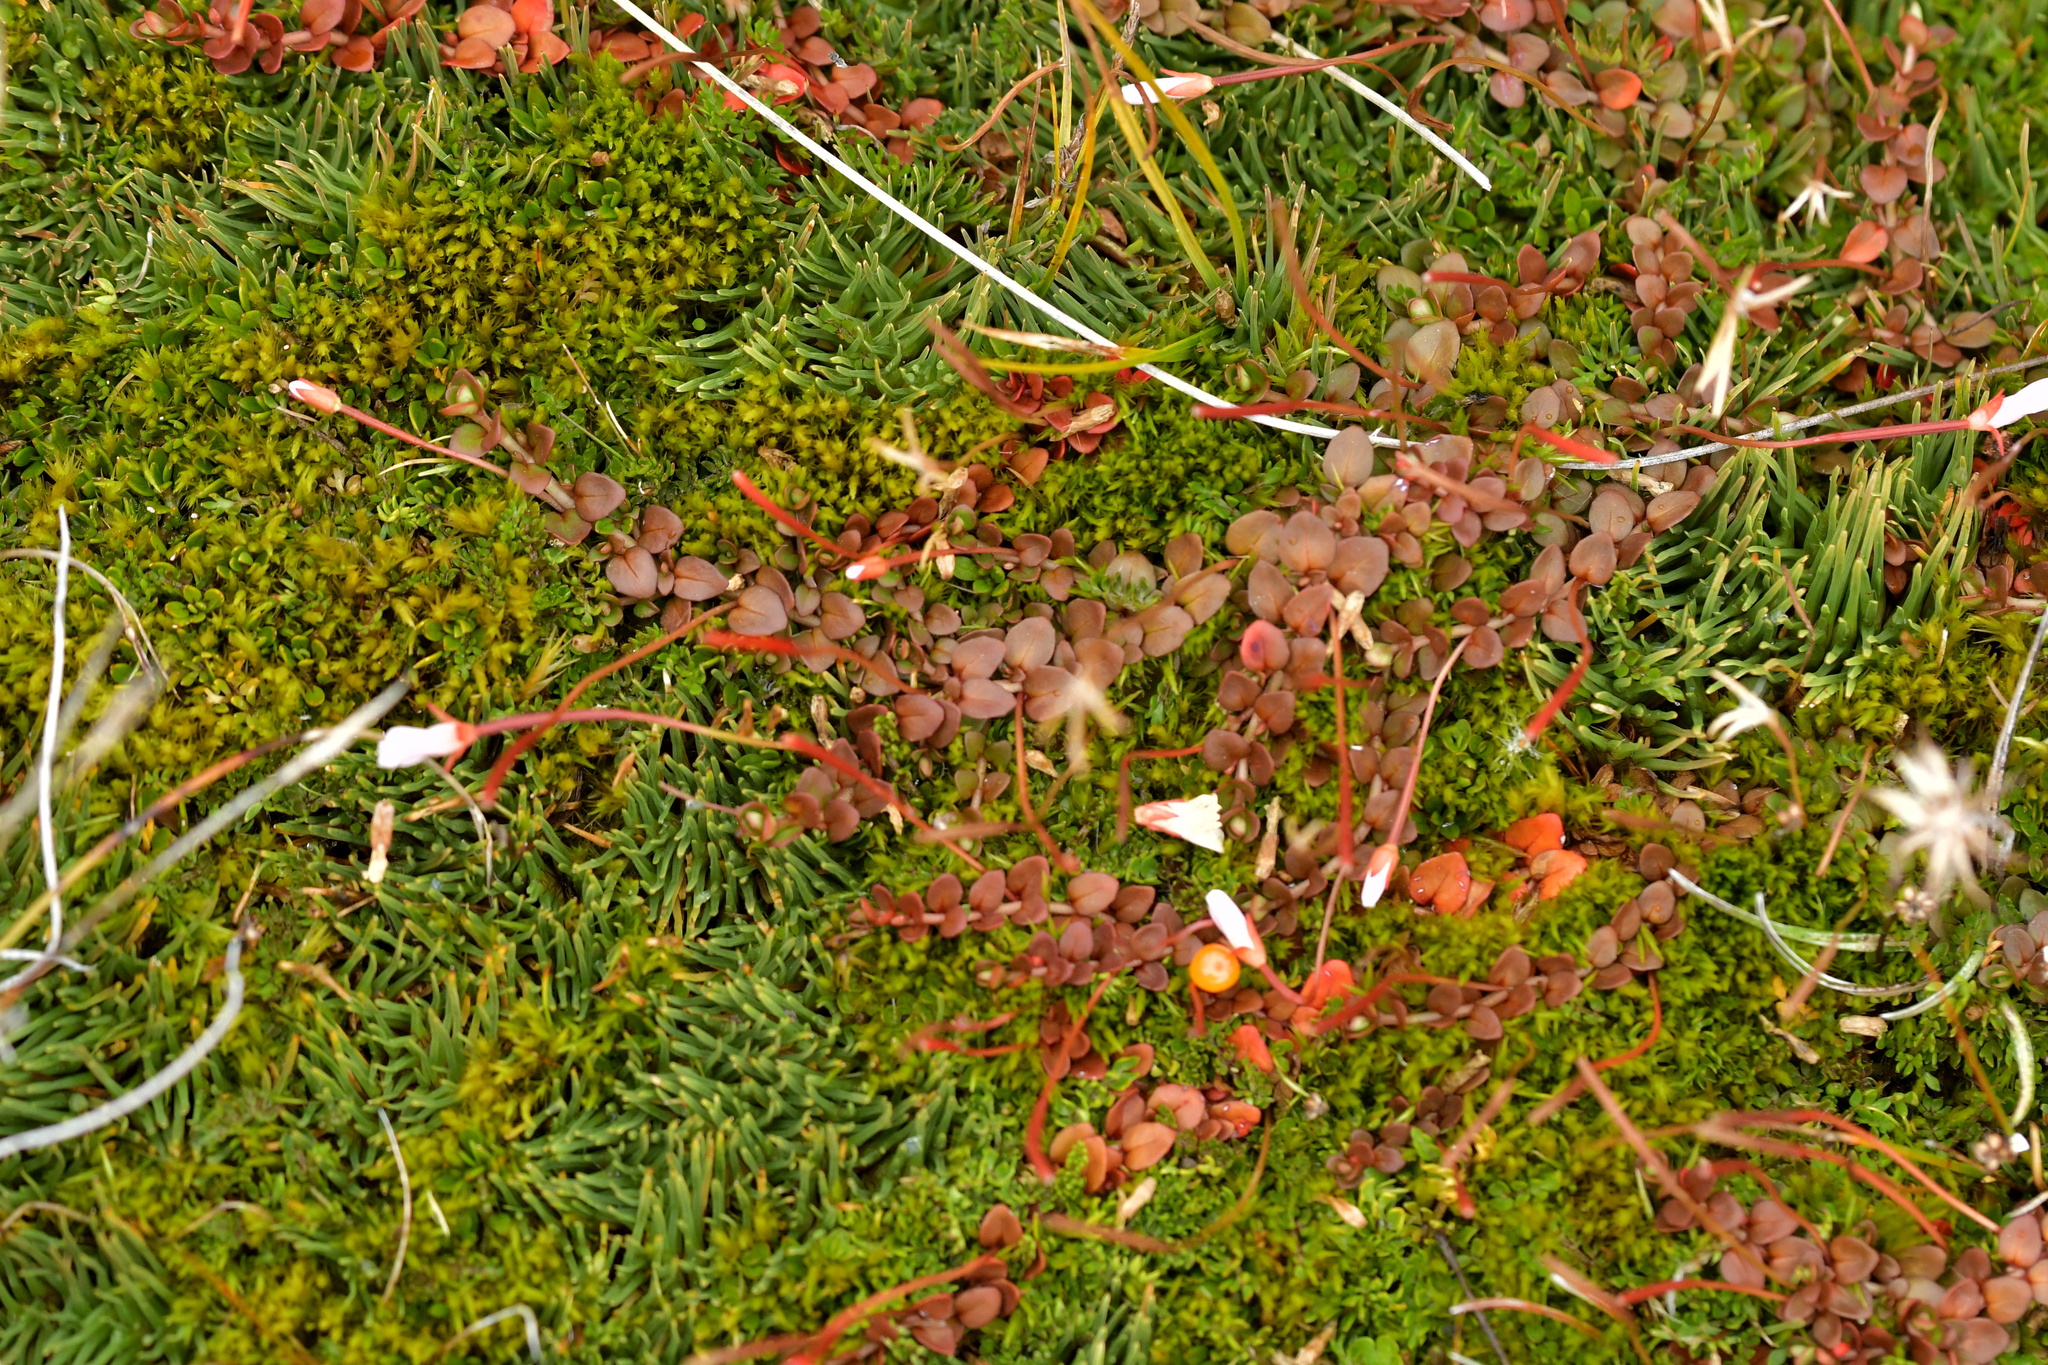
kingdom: Plantae
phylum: Tracheophyta
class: Magnoliopsida
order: Myrtales
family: Onagraceae
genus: Epilobium
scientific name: Epilobium brunnescens
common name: New zealand willowherb
